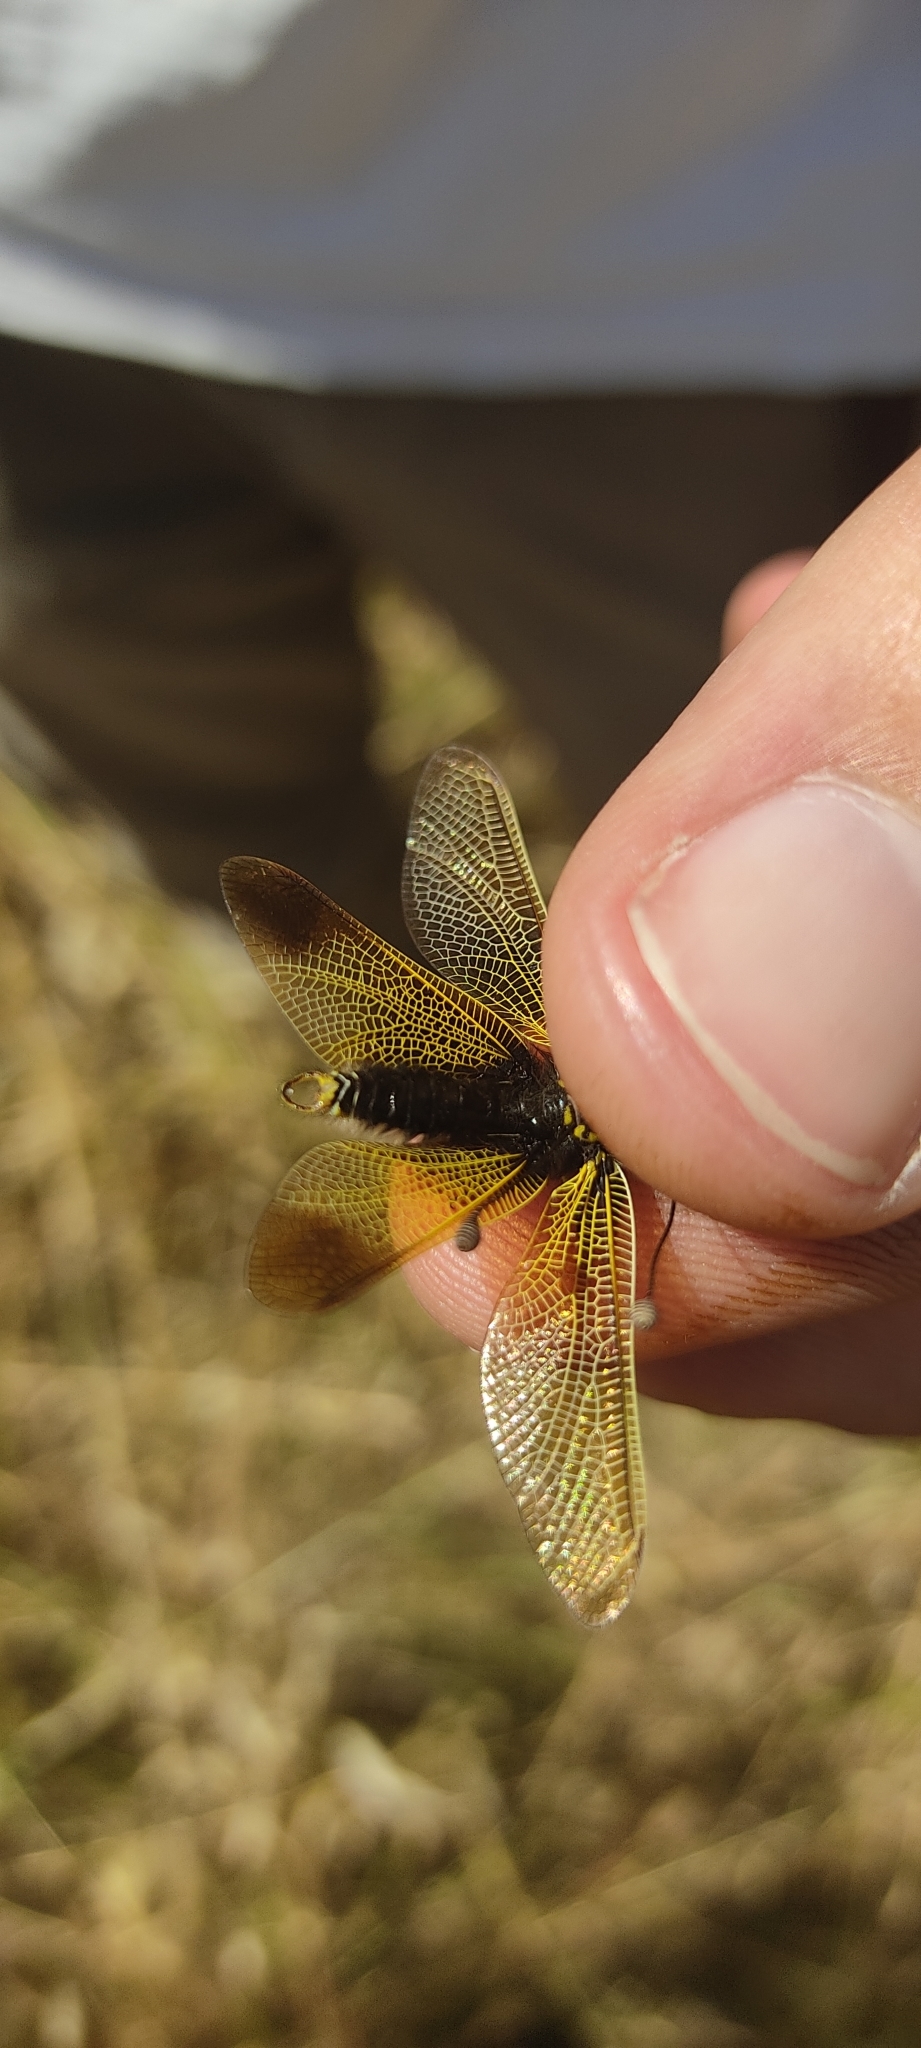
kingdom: Animalia
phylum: Arthropoda
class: Insecta
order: Neuroptera
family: Ascalaphidae
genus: Libelloides
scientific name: Libelloides ictericus
